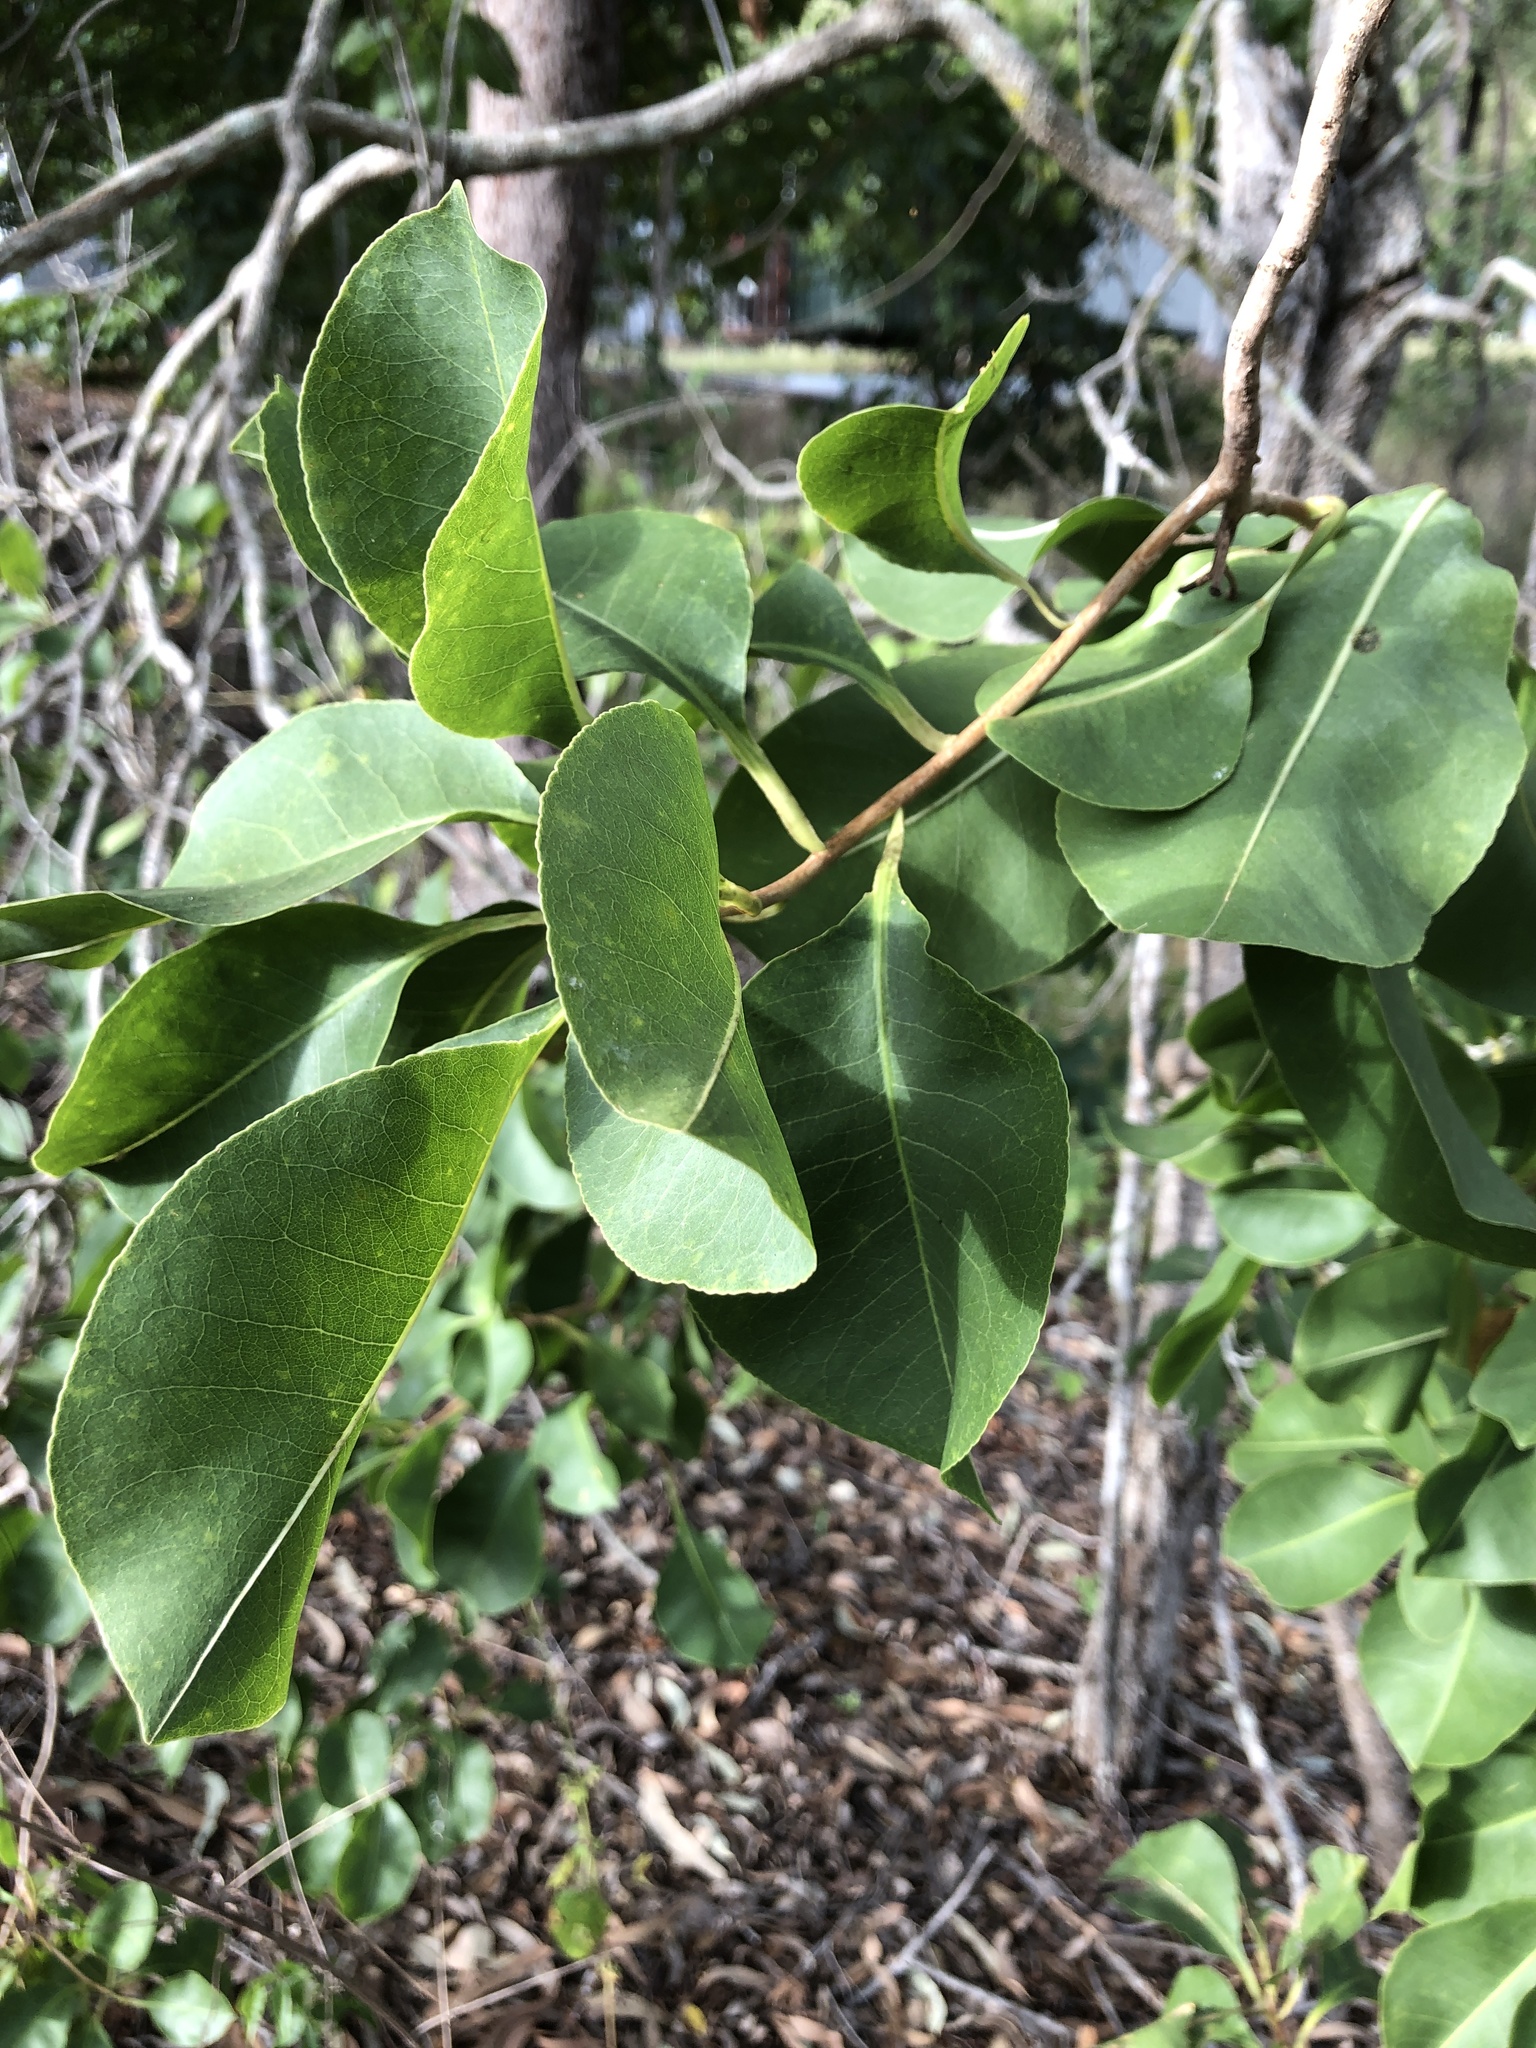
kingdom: Plantae
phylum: Tracheophyta
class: Magnoliopsida
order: Ericales
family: Lecythidaceae
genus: Planchonia
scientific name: Planchonia careya
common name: Cockatoo-apple
